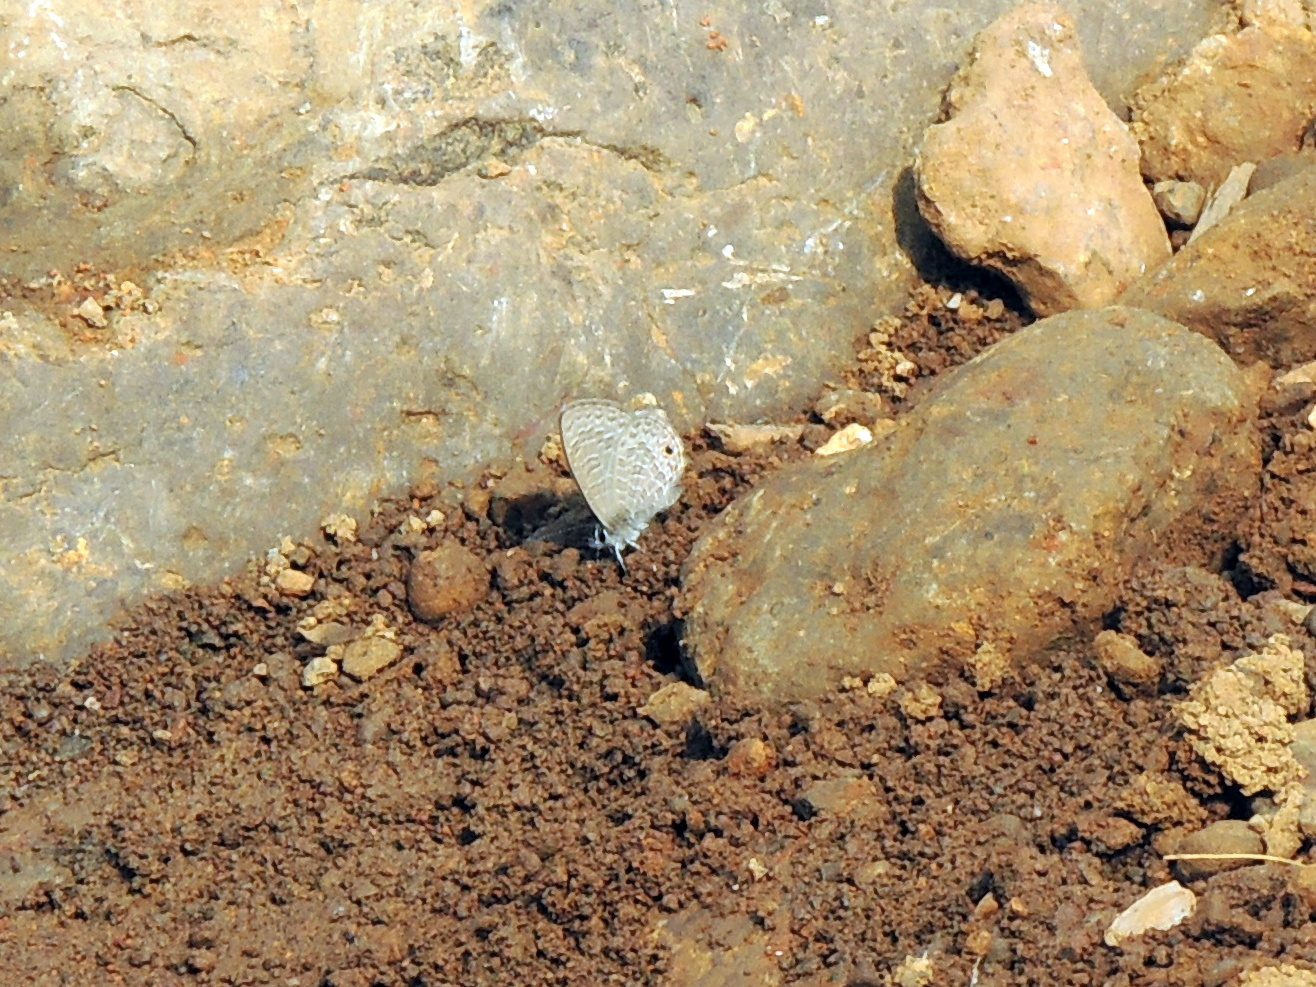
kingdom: Animalia
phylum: Arthropoda
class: Insecta
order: Lepidoptera
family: Lycaenidae
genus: Prosotas
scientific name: Prosotas dubiosa
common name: Tailless lineblue
